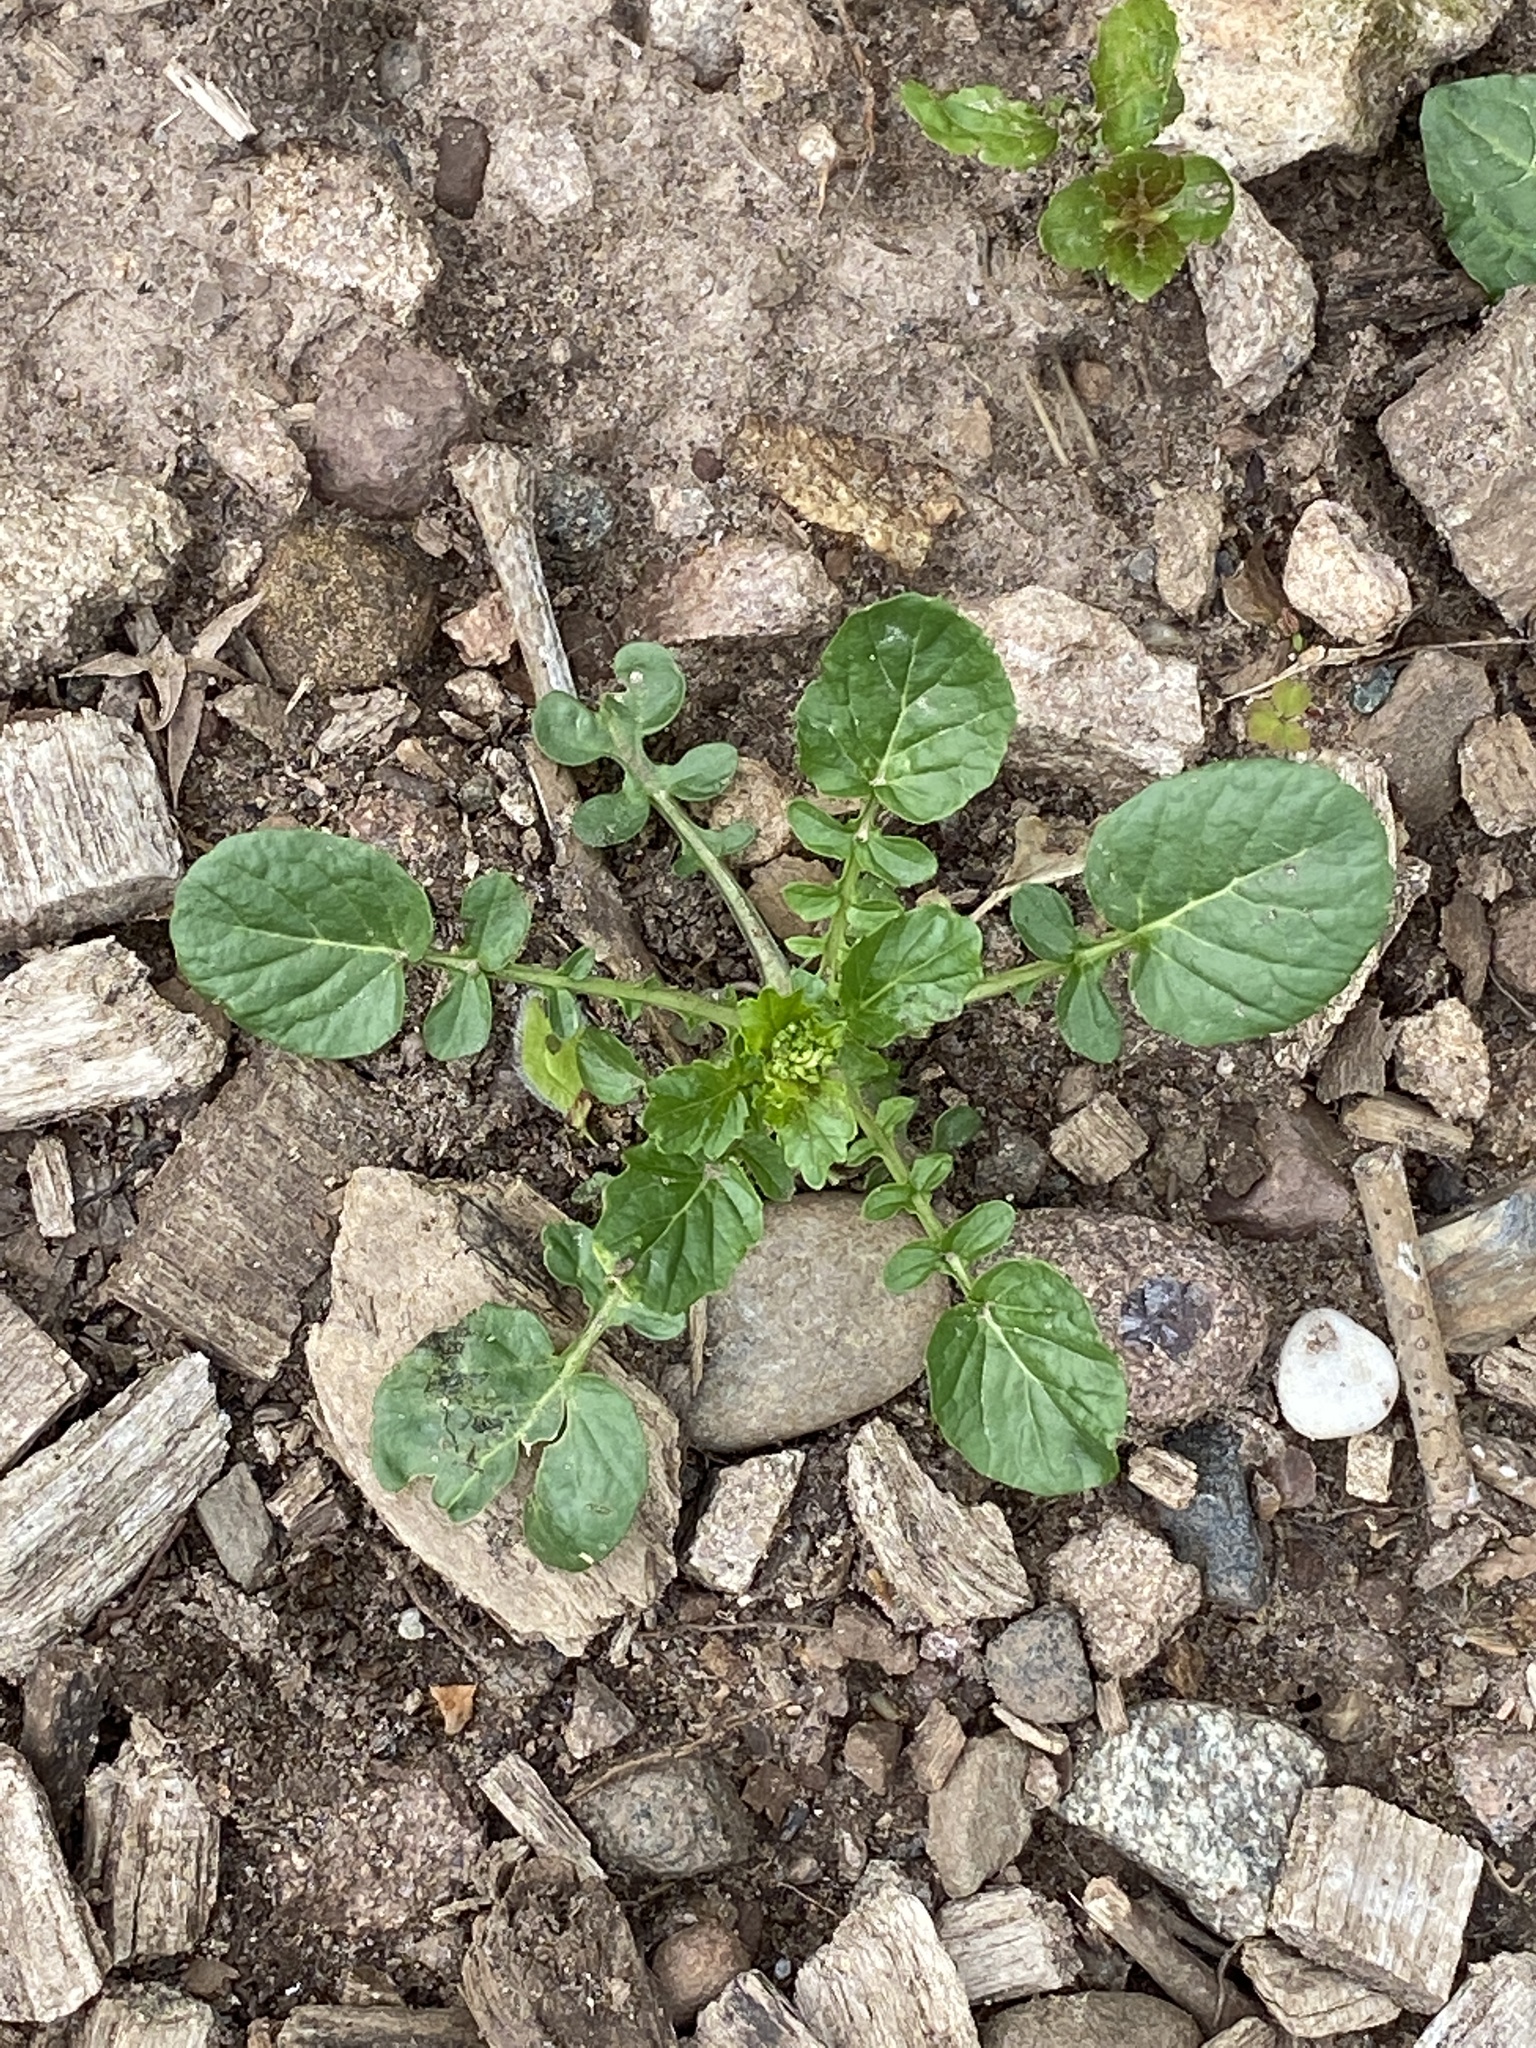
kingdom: Plantae
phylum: Tracheophyta
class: Magnoliopsida
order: Brassicales
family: Brassicaceae
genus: Barbarea
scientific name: Barbarea vulgaris
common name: Cressy-greens
